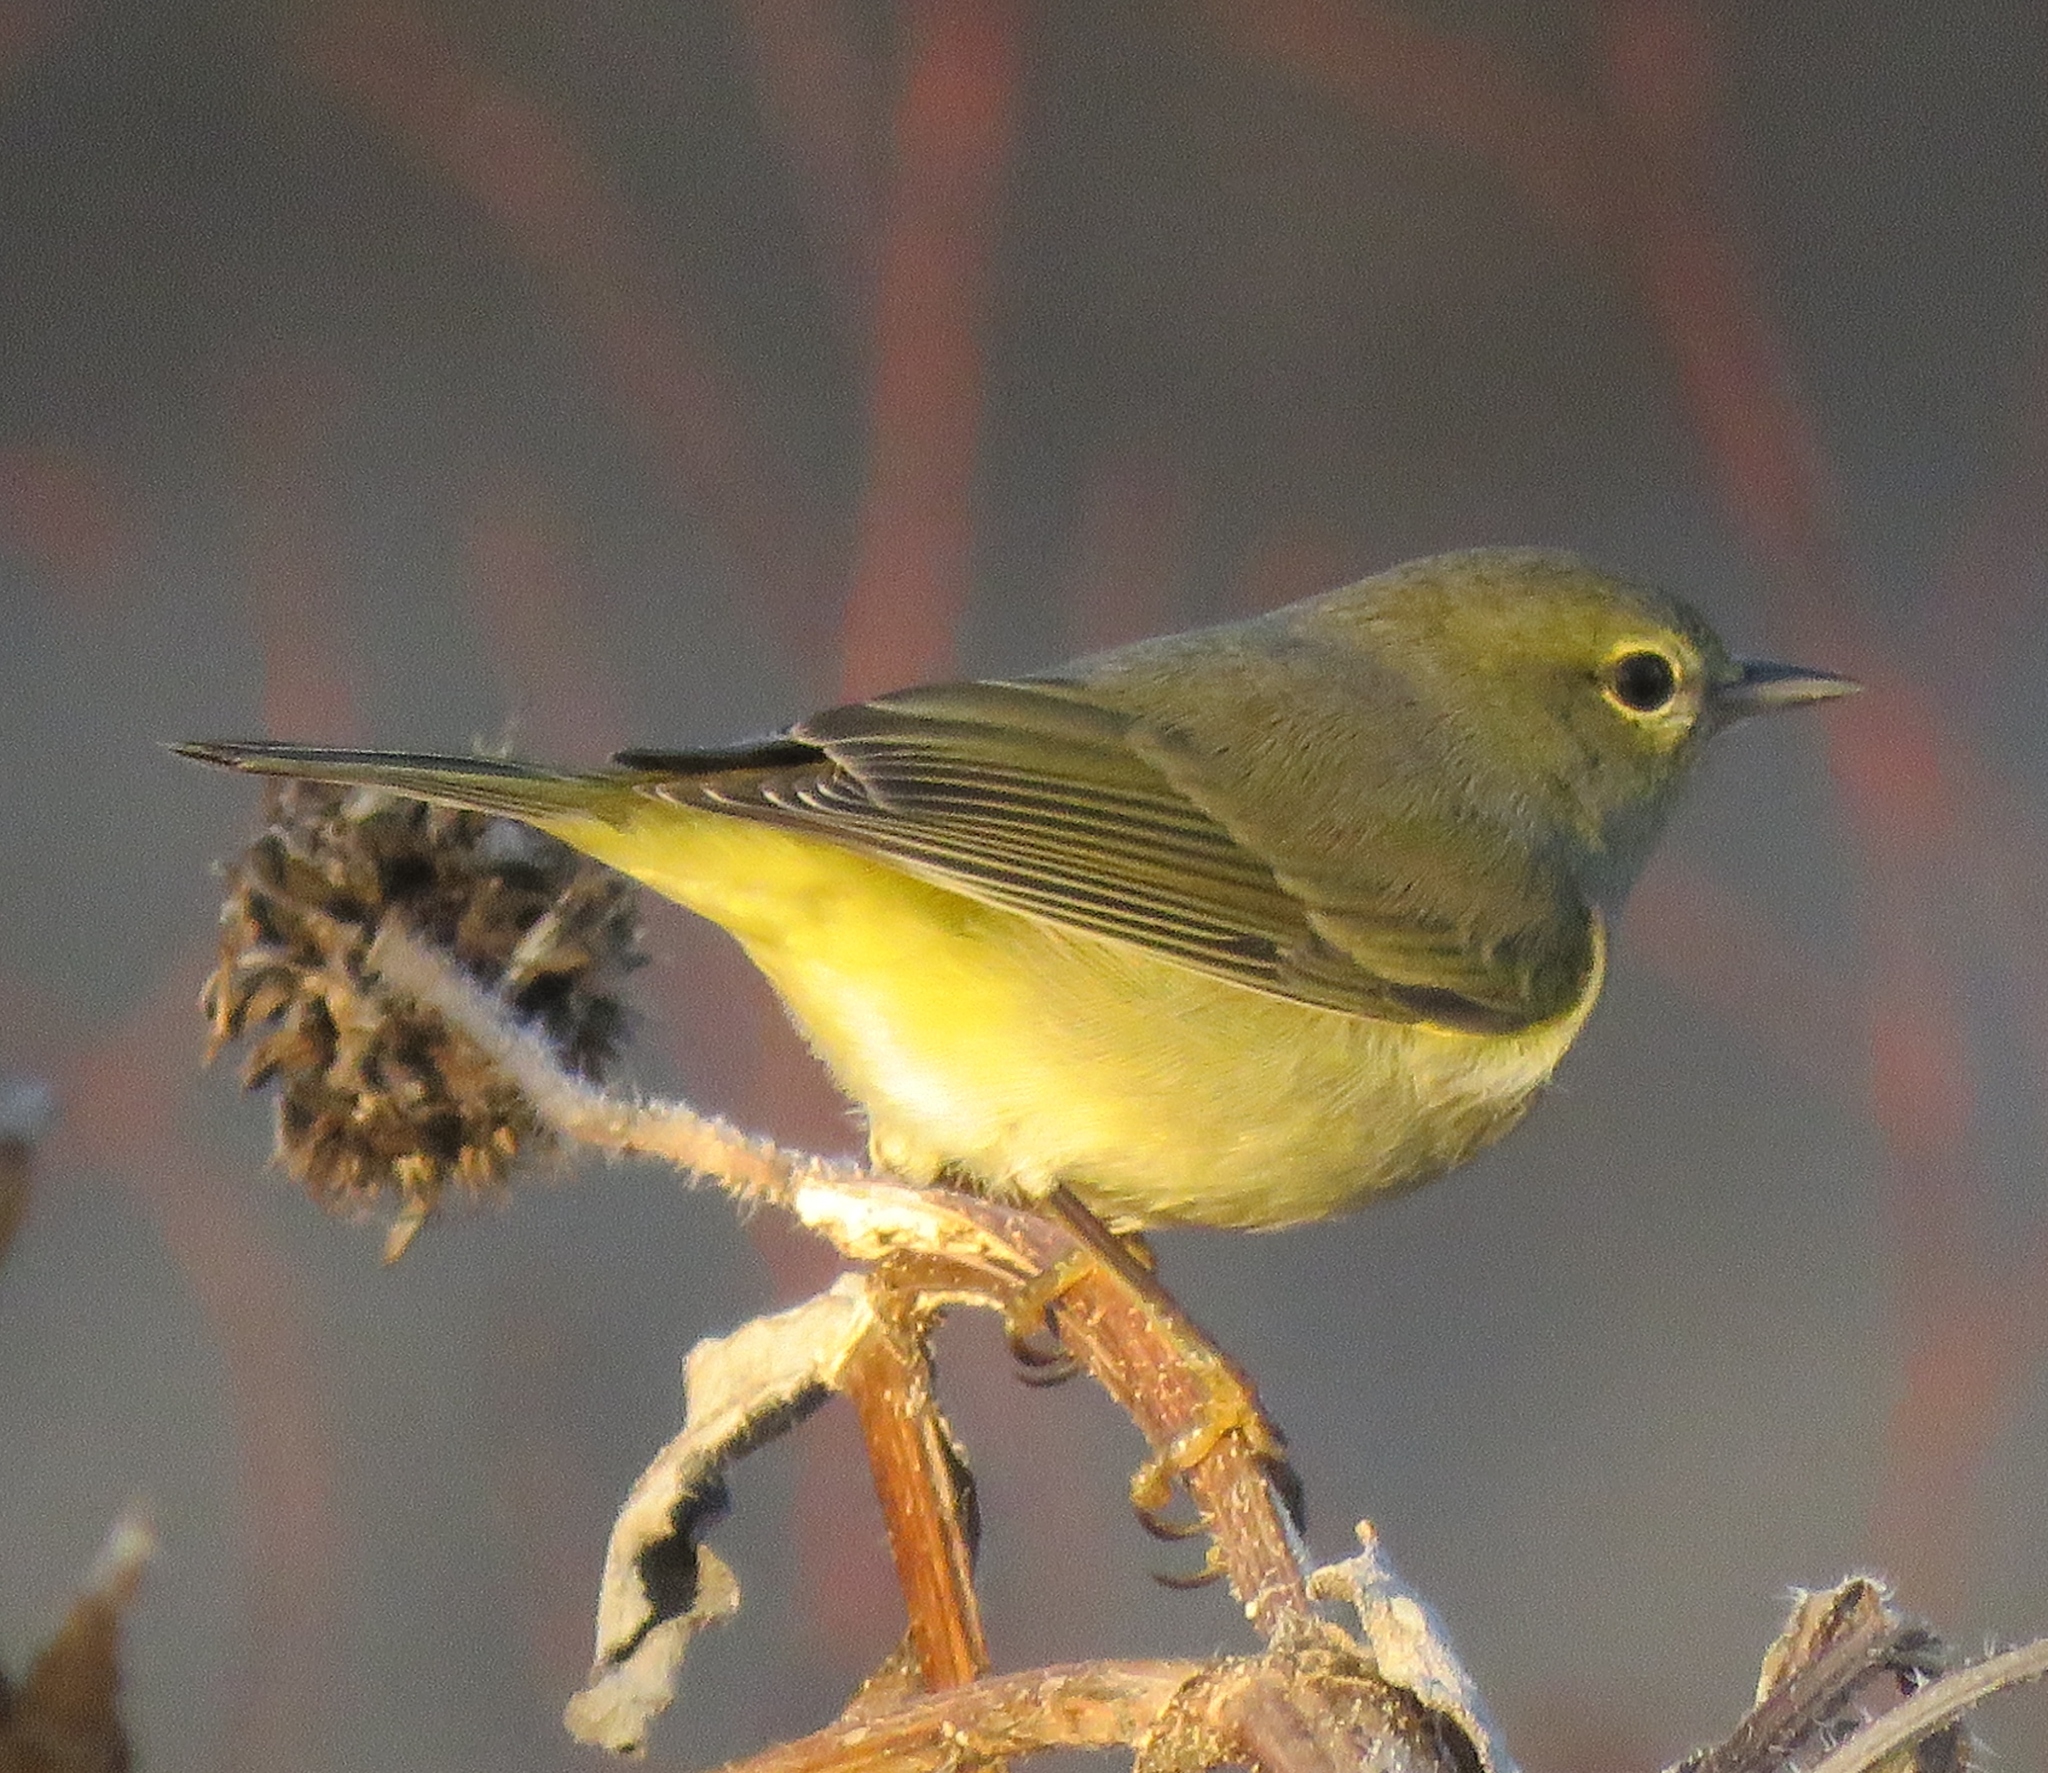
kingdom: Animalia
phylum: Chordata
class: Aves
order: Passeriformes
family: Parulidae
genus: Leiothlypis
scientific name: Leiothlypis celata
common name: Orange-crowned warbler
